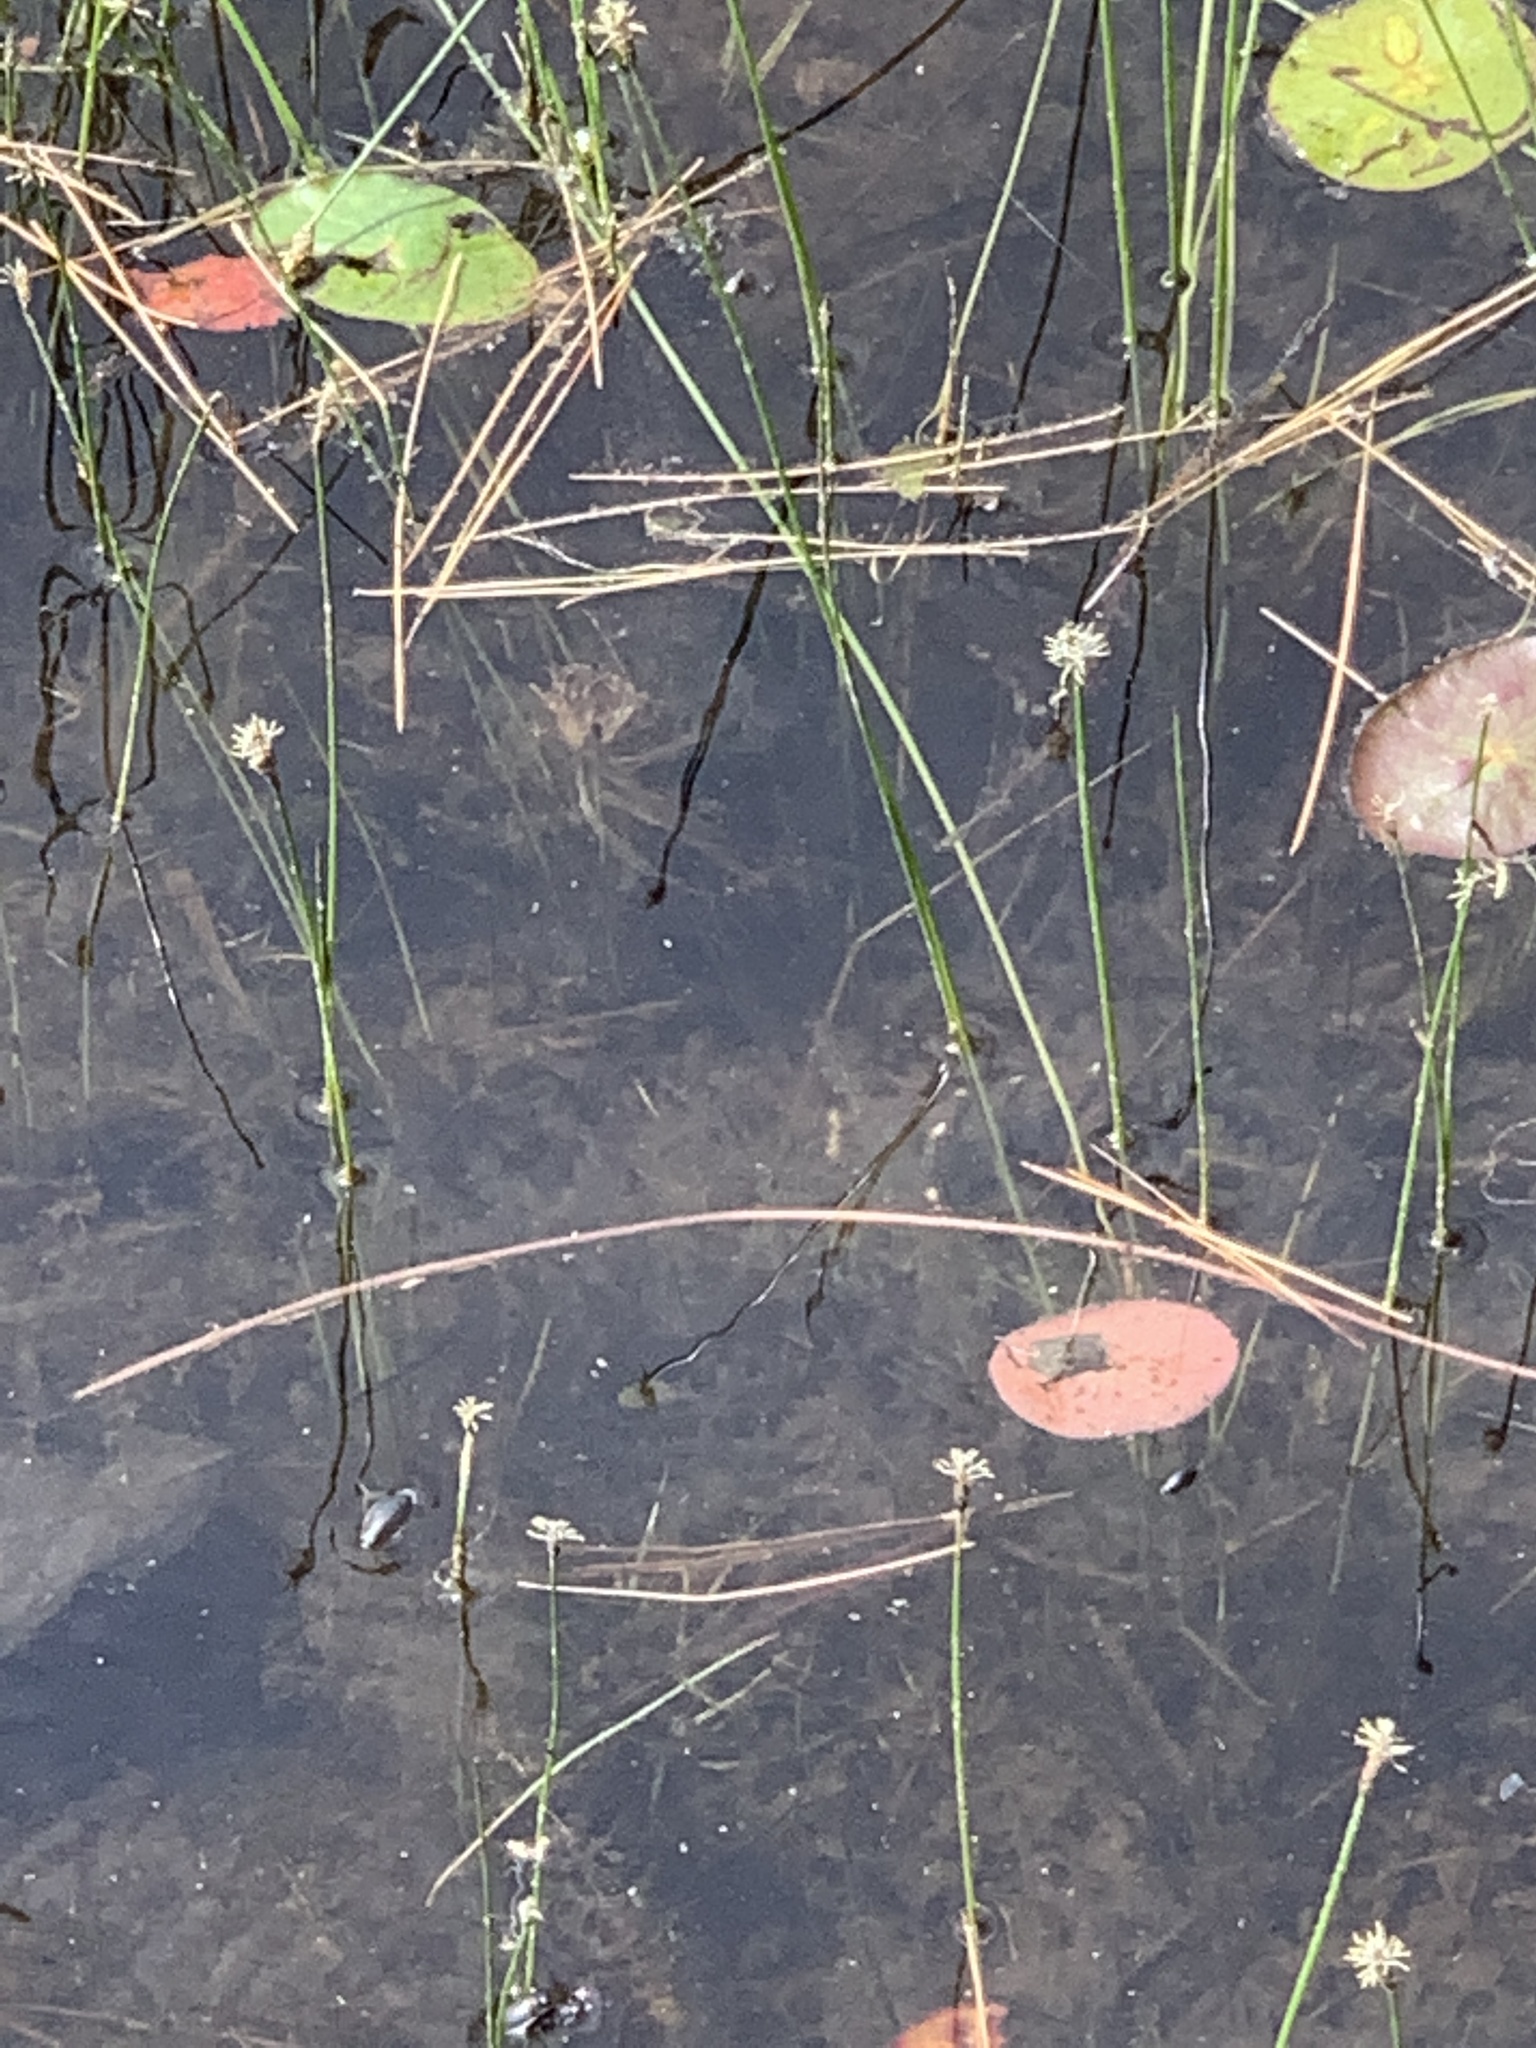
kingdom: Animalia
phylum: Arthropoda
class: Insecta
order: Coleoptera
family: Gyrinidae
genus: Dineutus
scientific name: Dineutus
